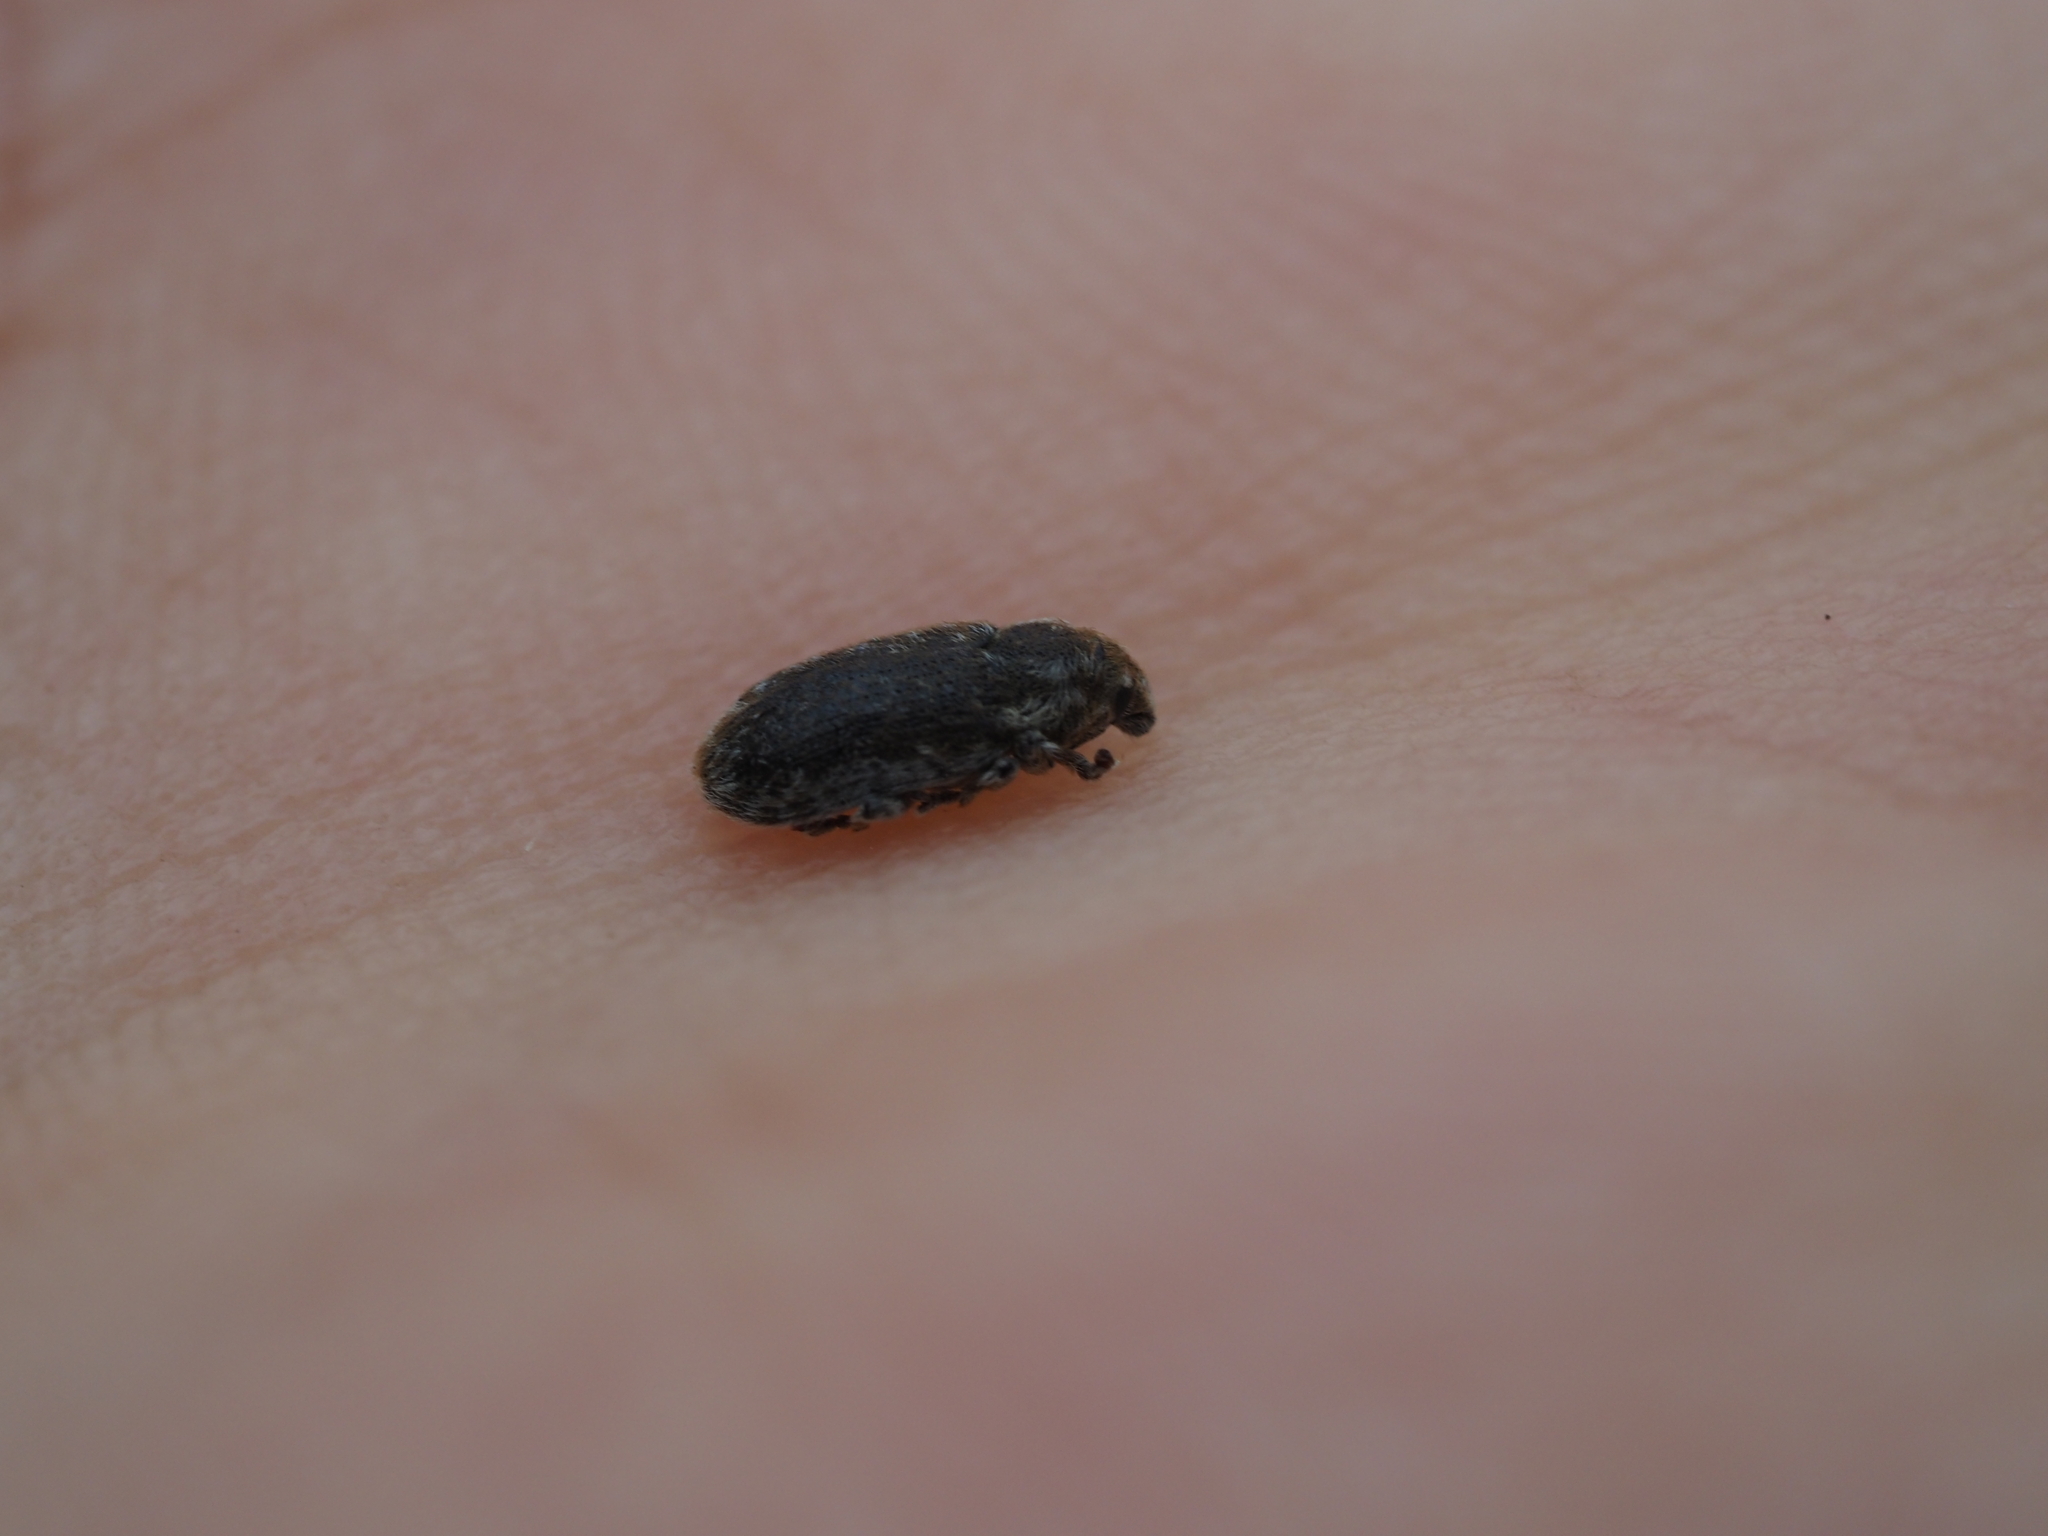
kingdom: Animalia
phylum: Arthropoda
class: Insecta
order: Coleoptera
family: Curculionidae
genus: Bangasternus
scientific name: Bangasternus fausti
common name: Broad-nosed knapweed seedhead weevil
